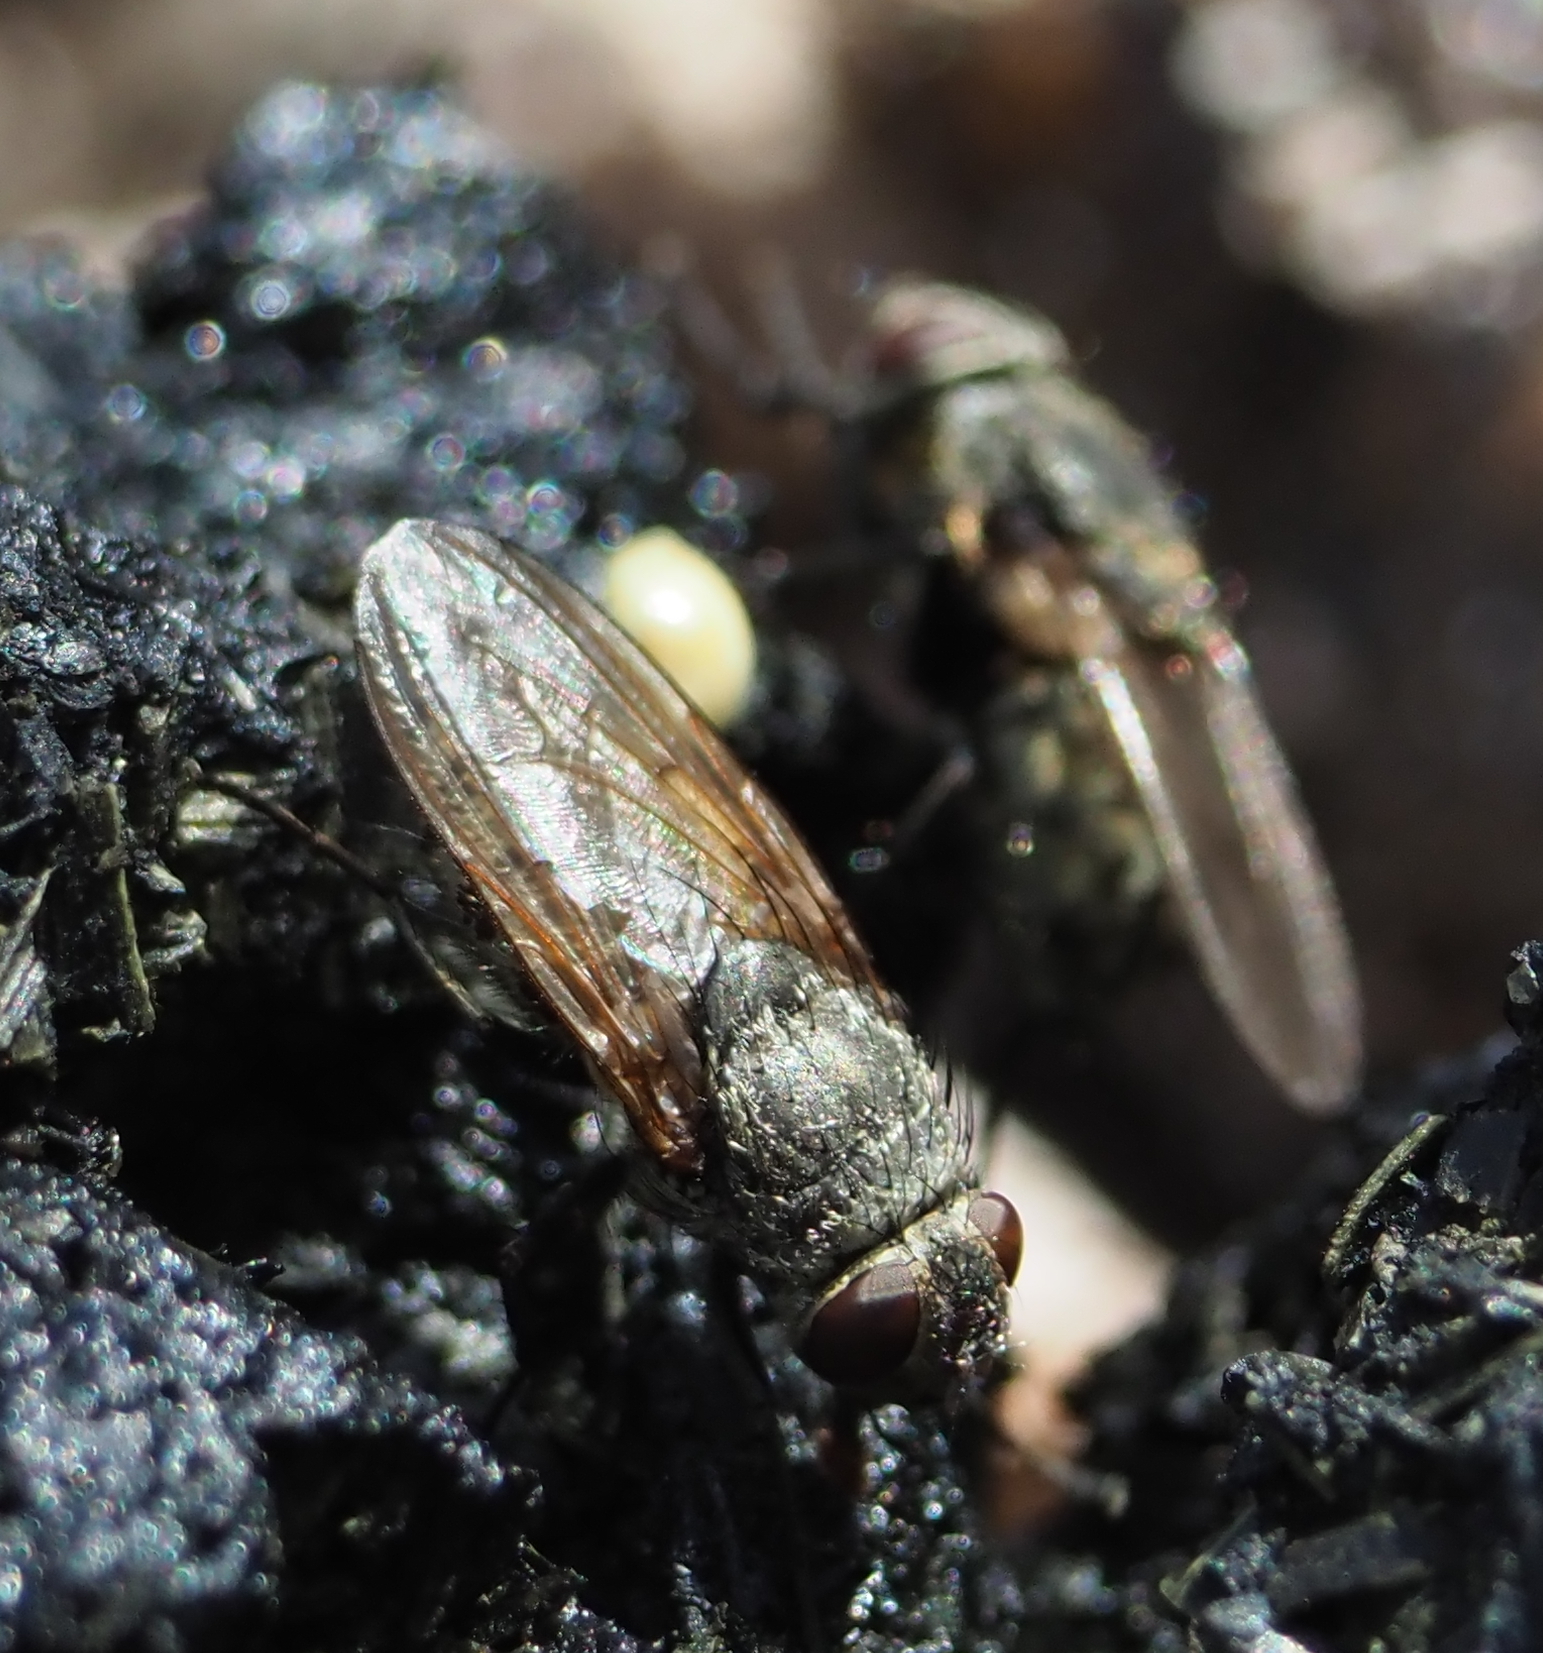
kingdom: Animalia
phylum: Arthropoda
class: Insecta
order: Diptera
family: Polleniidae
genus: Pollenia
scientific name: Pollenia
